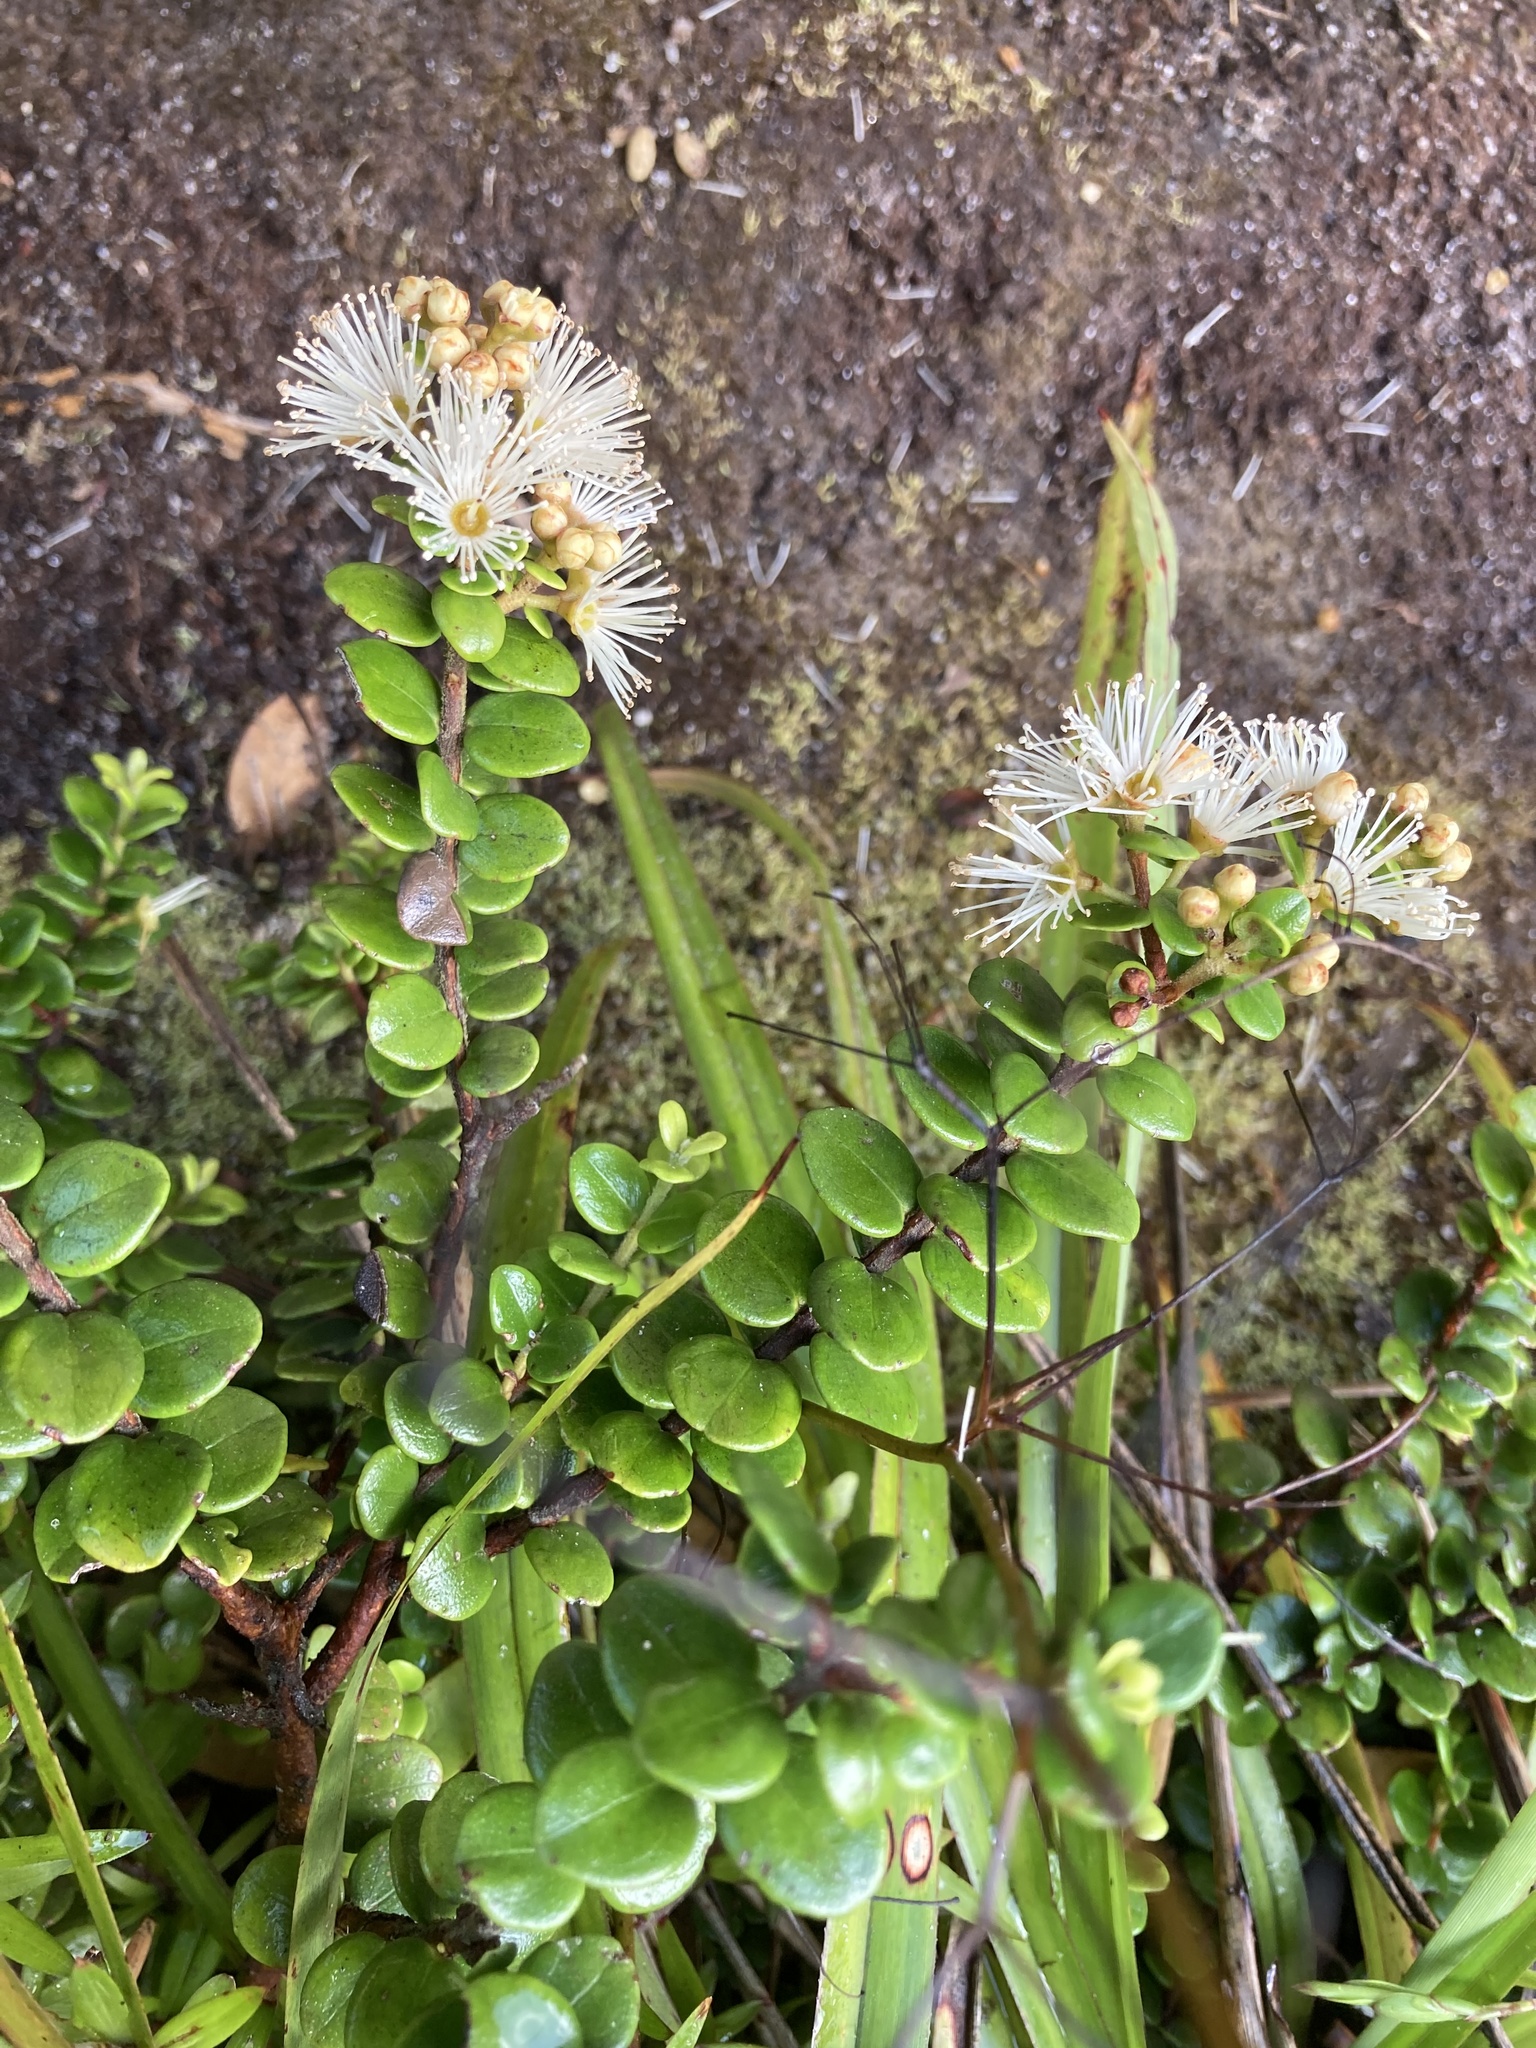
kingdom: Plantae
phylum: Tracheophyta
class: Magnoliopsida
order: Myrtales
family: Myrtaceae
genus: Metrosideros
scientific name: Metrosideros perforata
